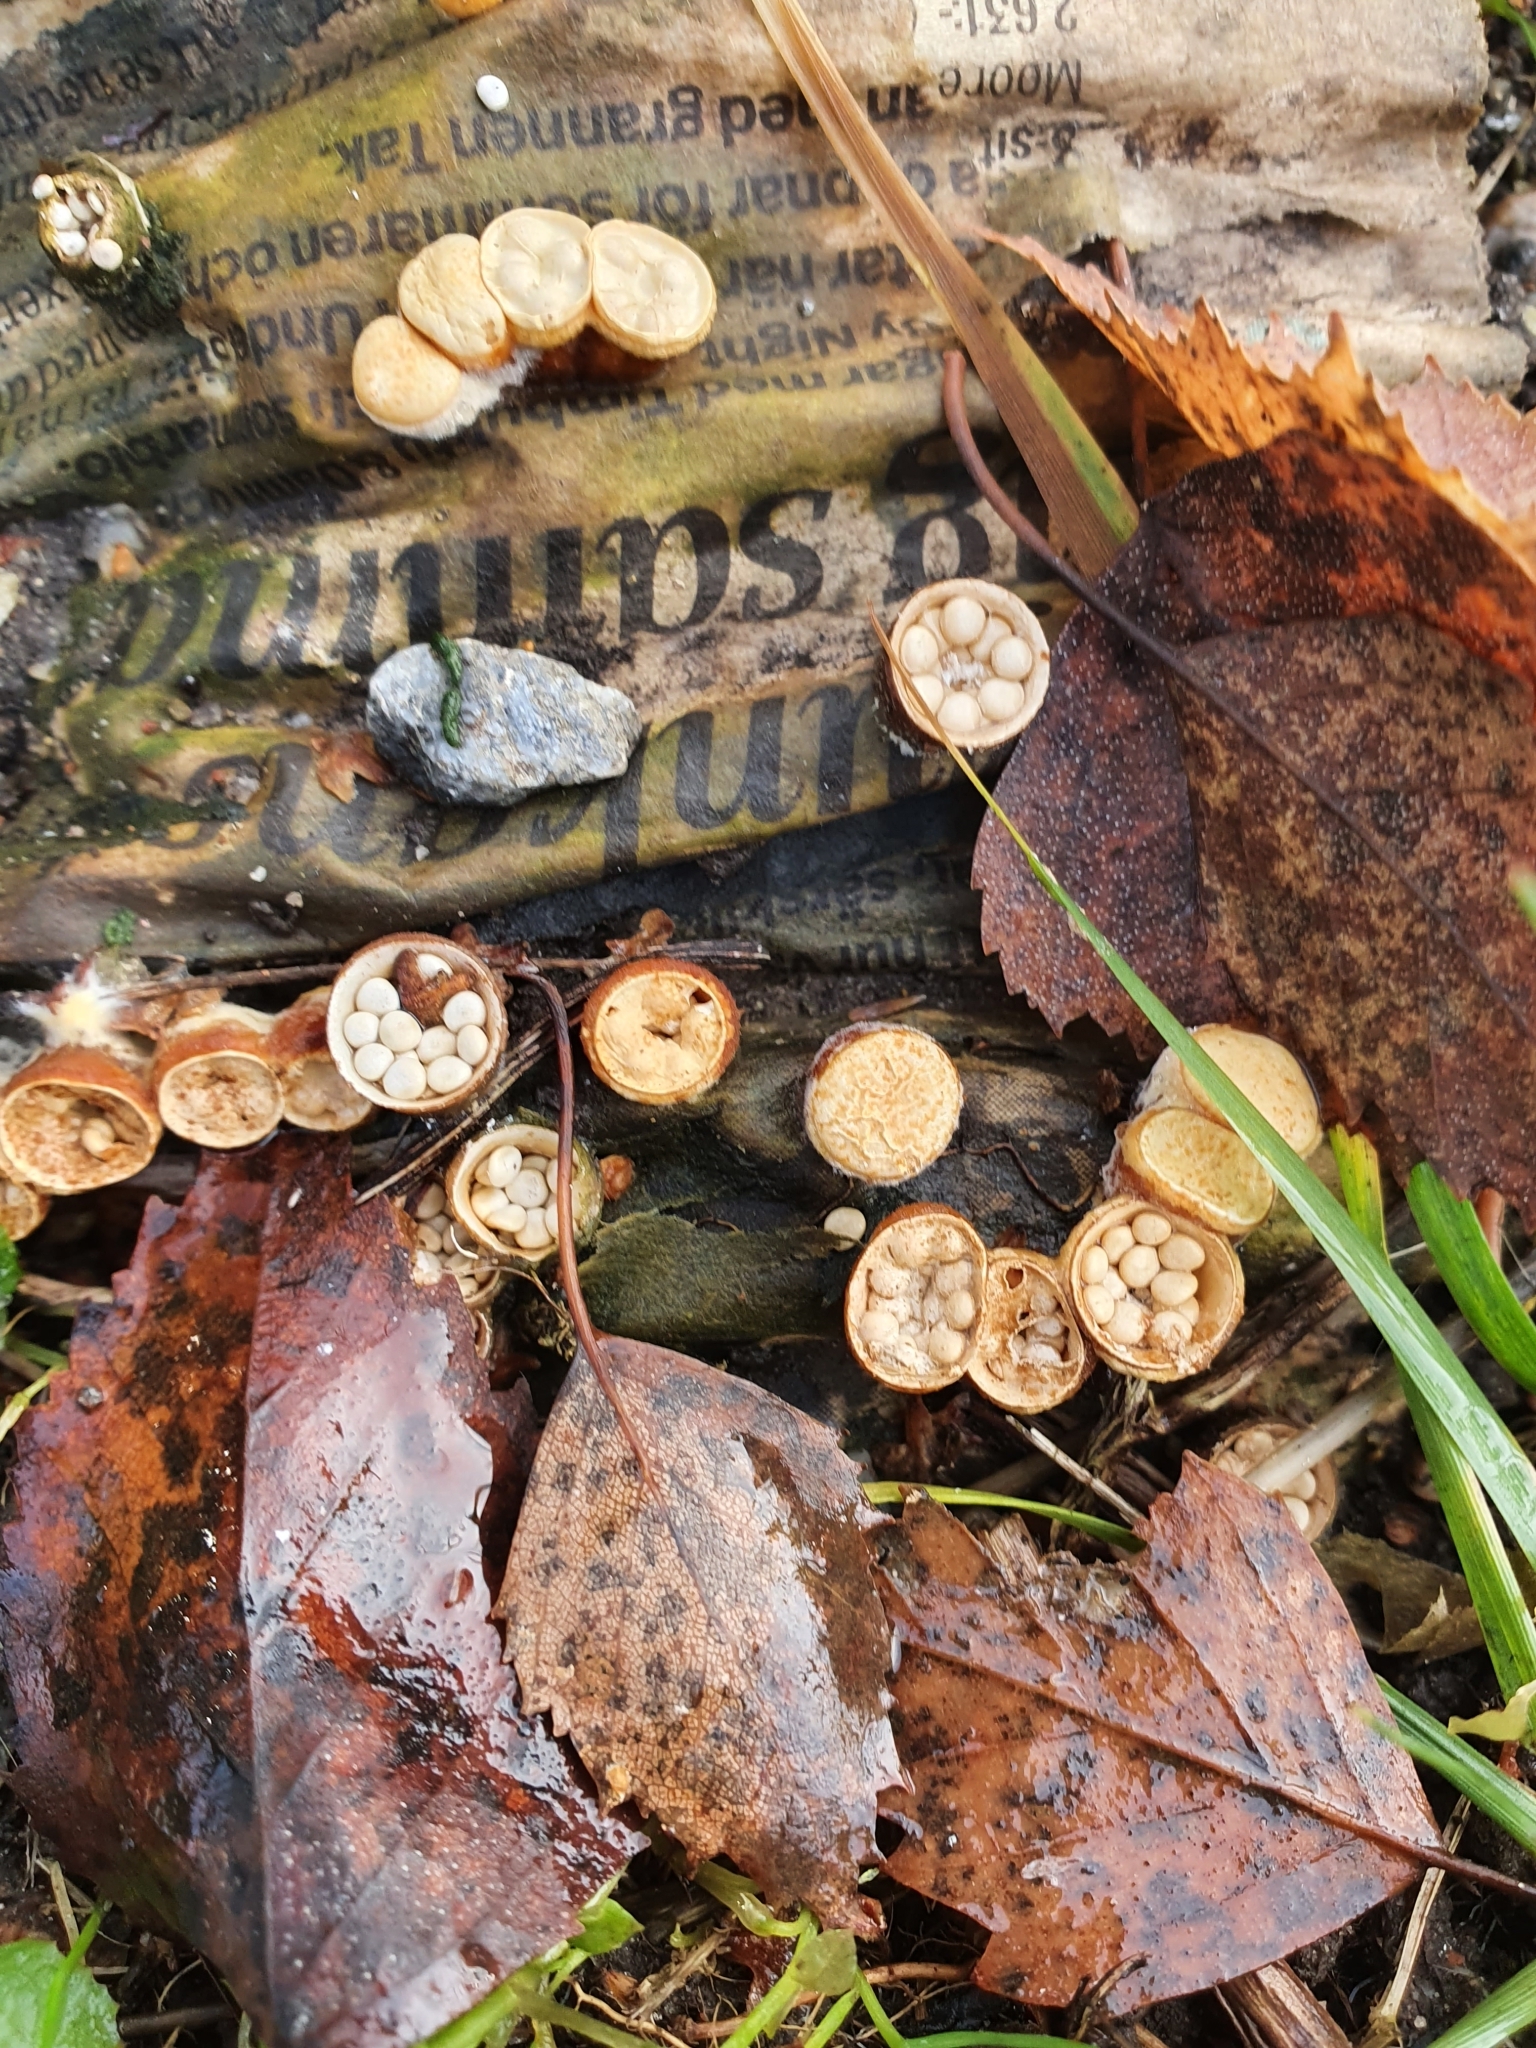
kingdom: Fungi
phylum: Basidiomycota
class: Agaricomycetes
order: Agaricales
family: Nidulariaceae
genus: Crucibulum
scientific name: Crucibulum laeve
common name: Common bird's nest
